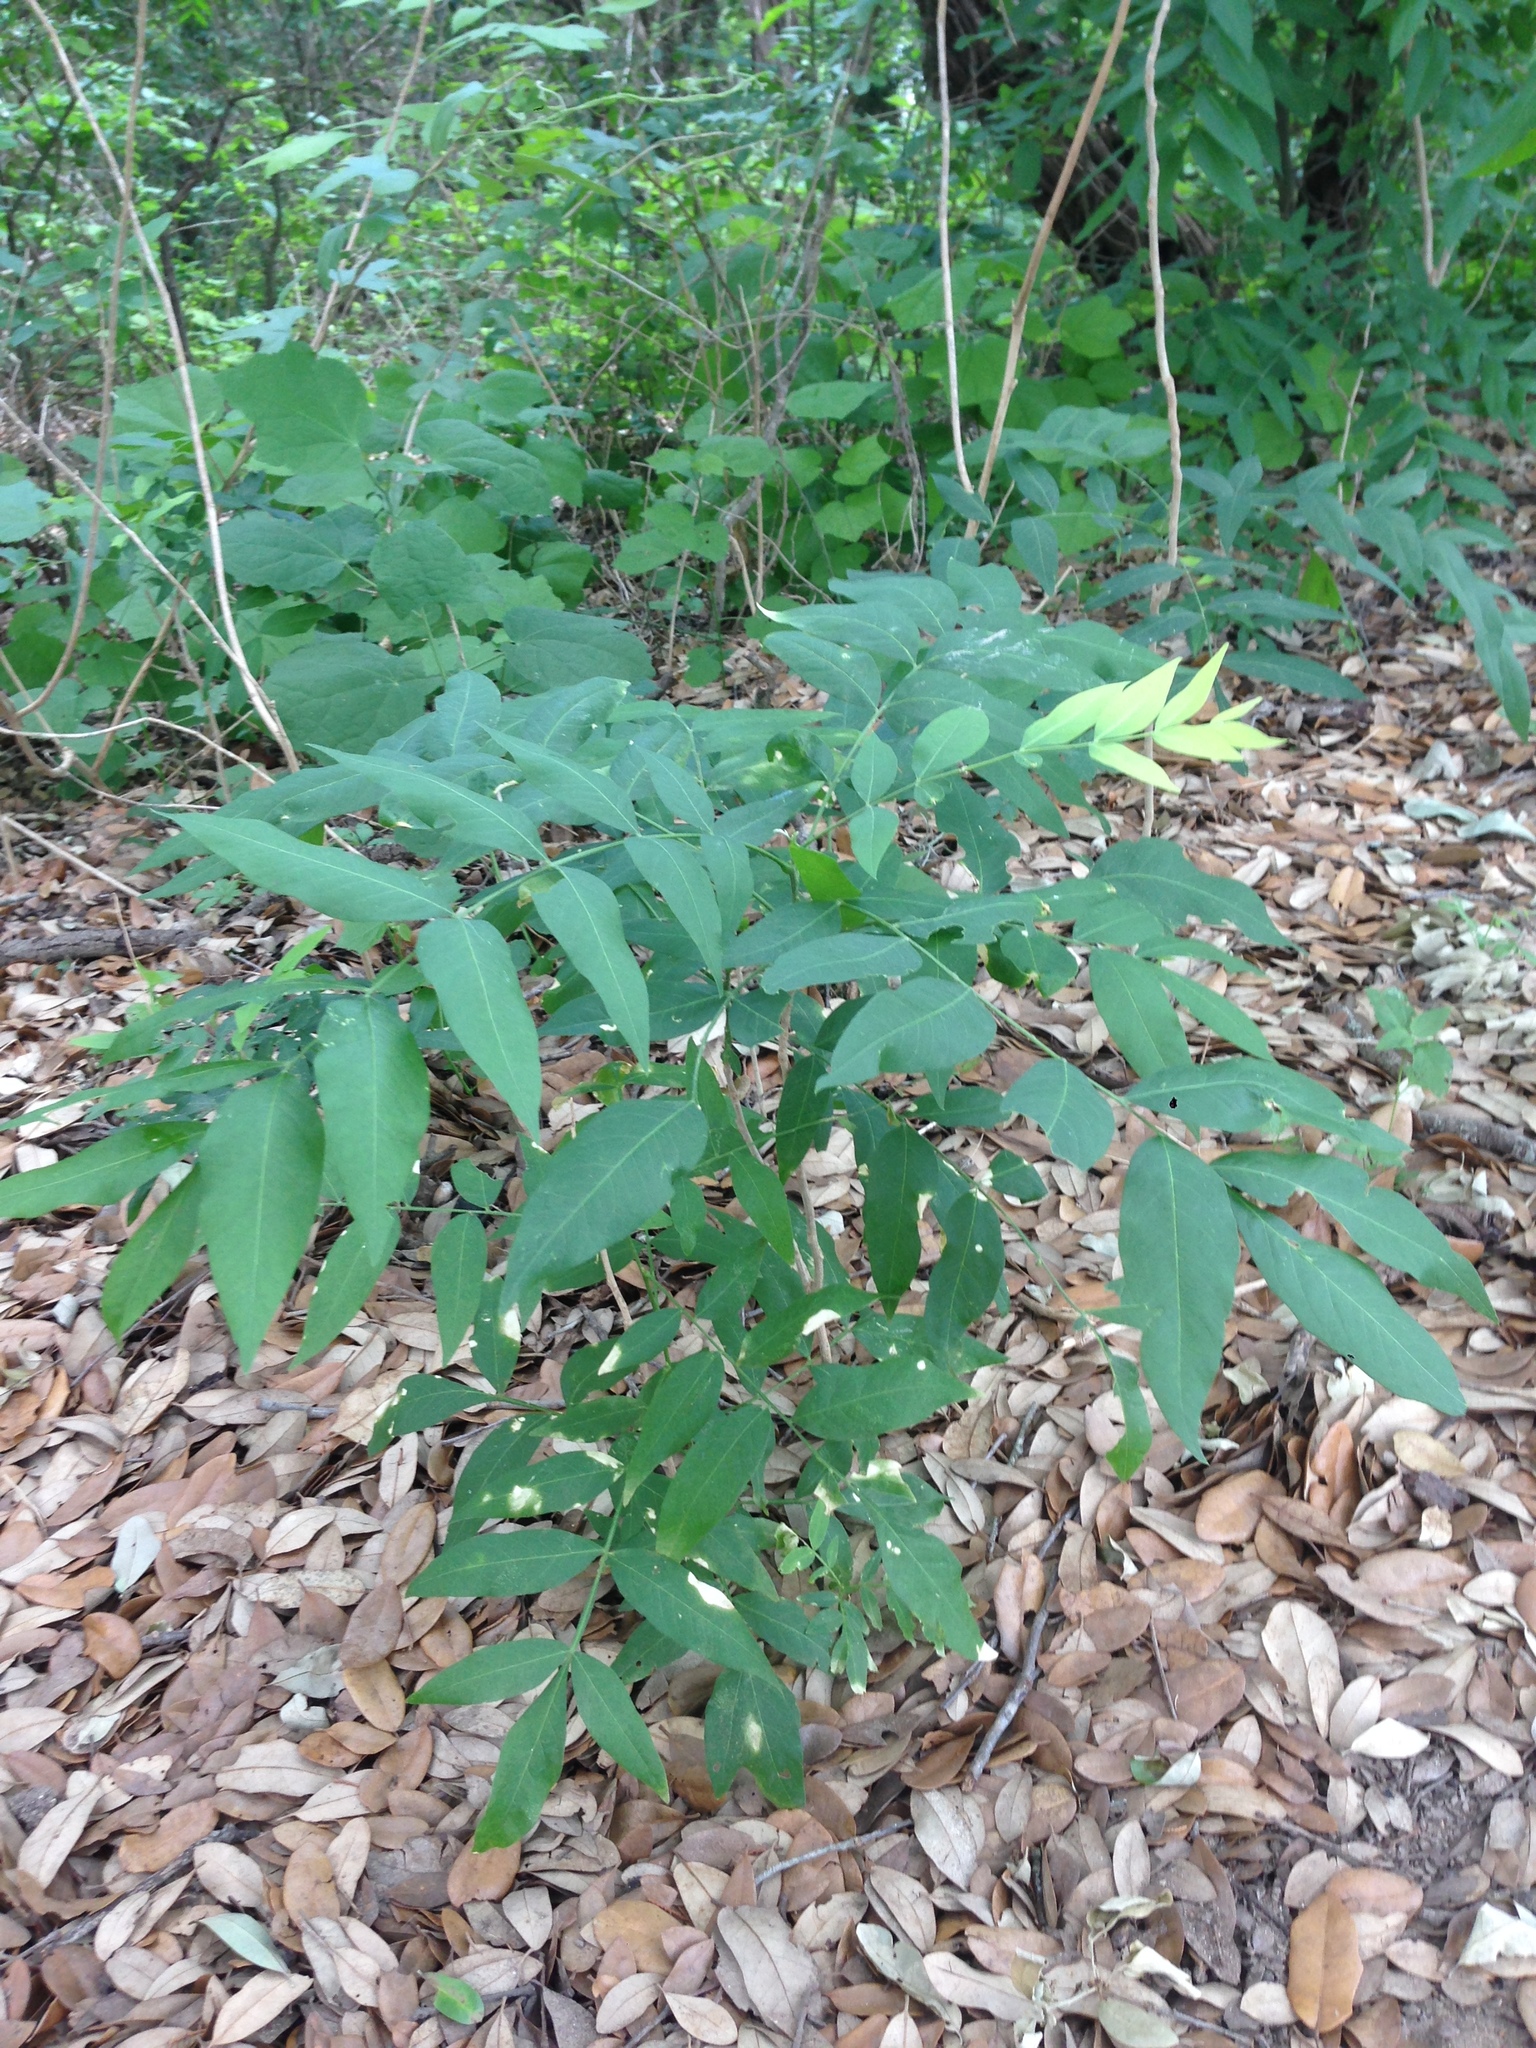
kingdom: Plantae
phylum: Tracheophyta
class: Magnoliopsida
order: Sapindales
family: Sapindaceae
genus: Sapindus
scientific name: Sapindus drummondii
